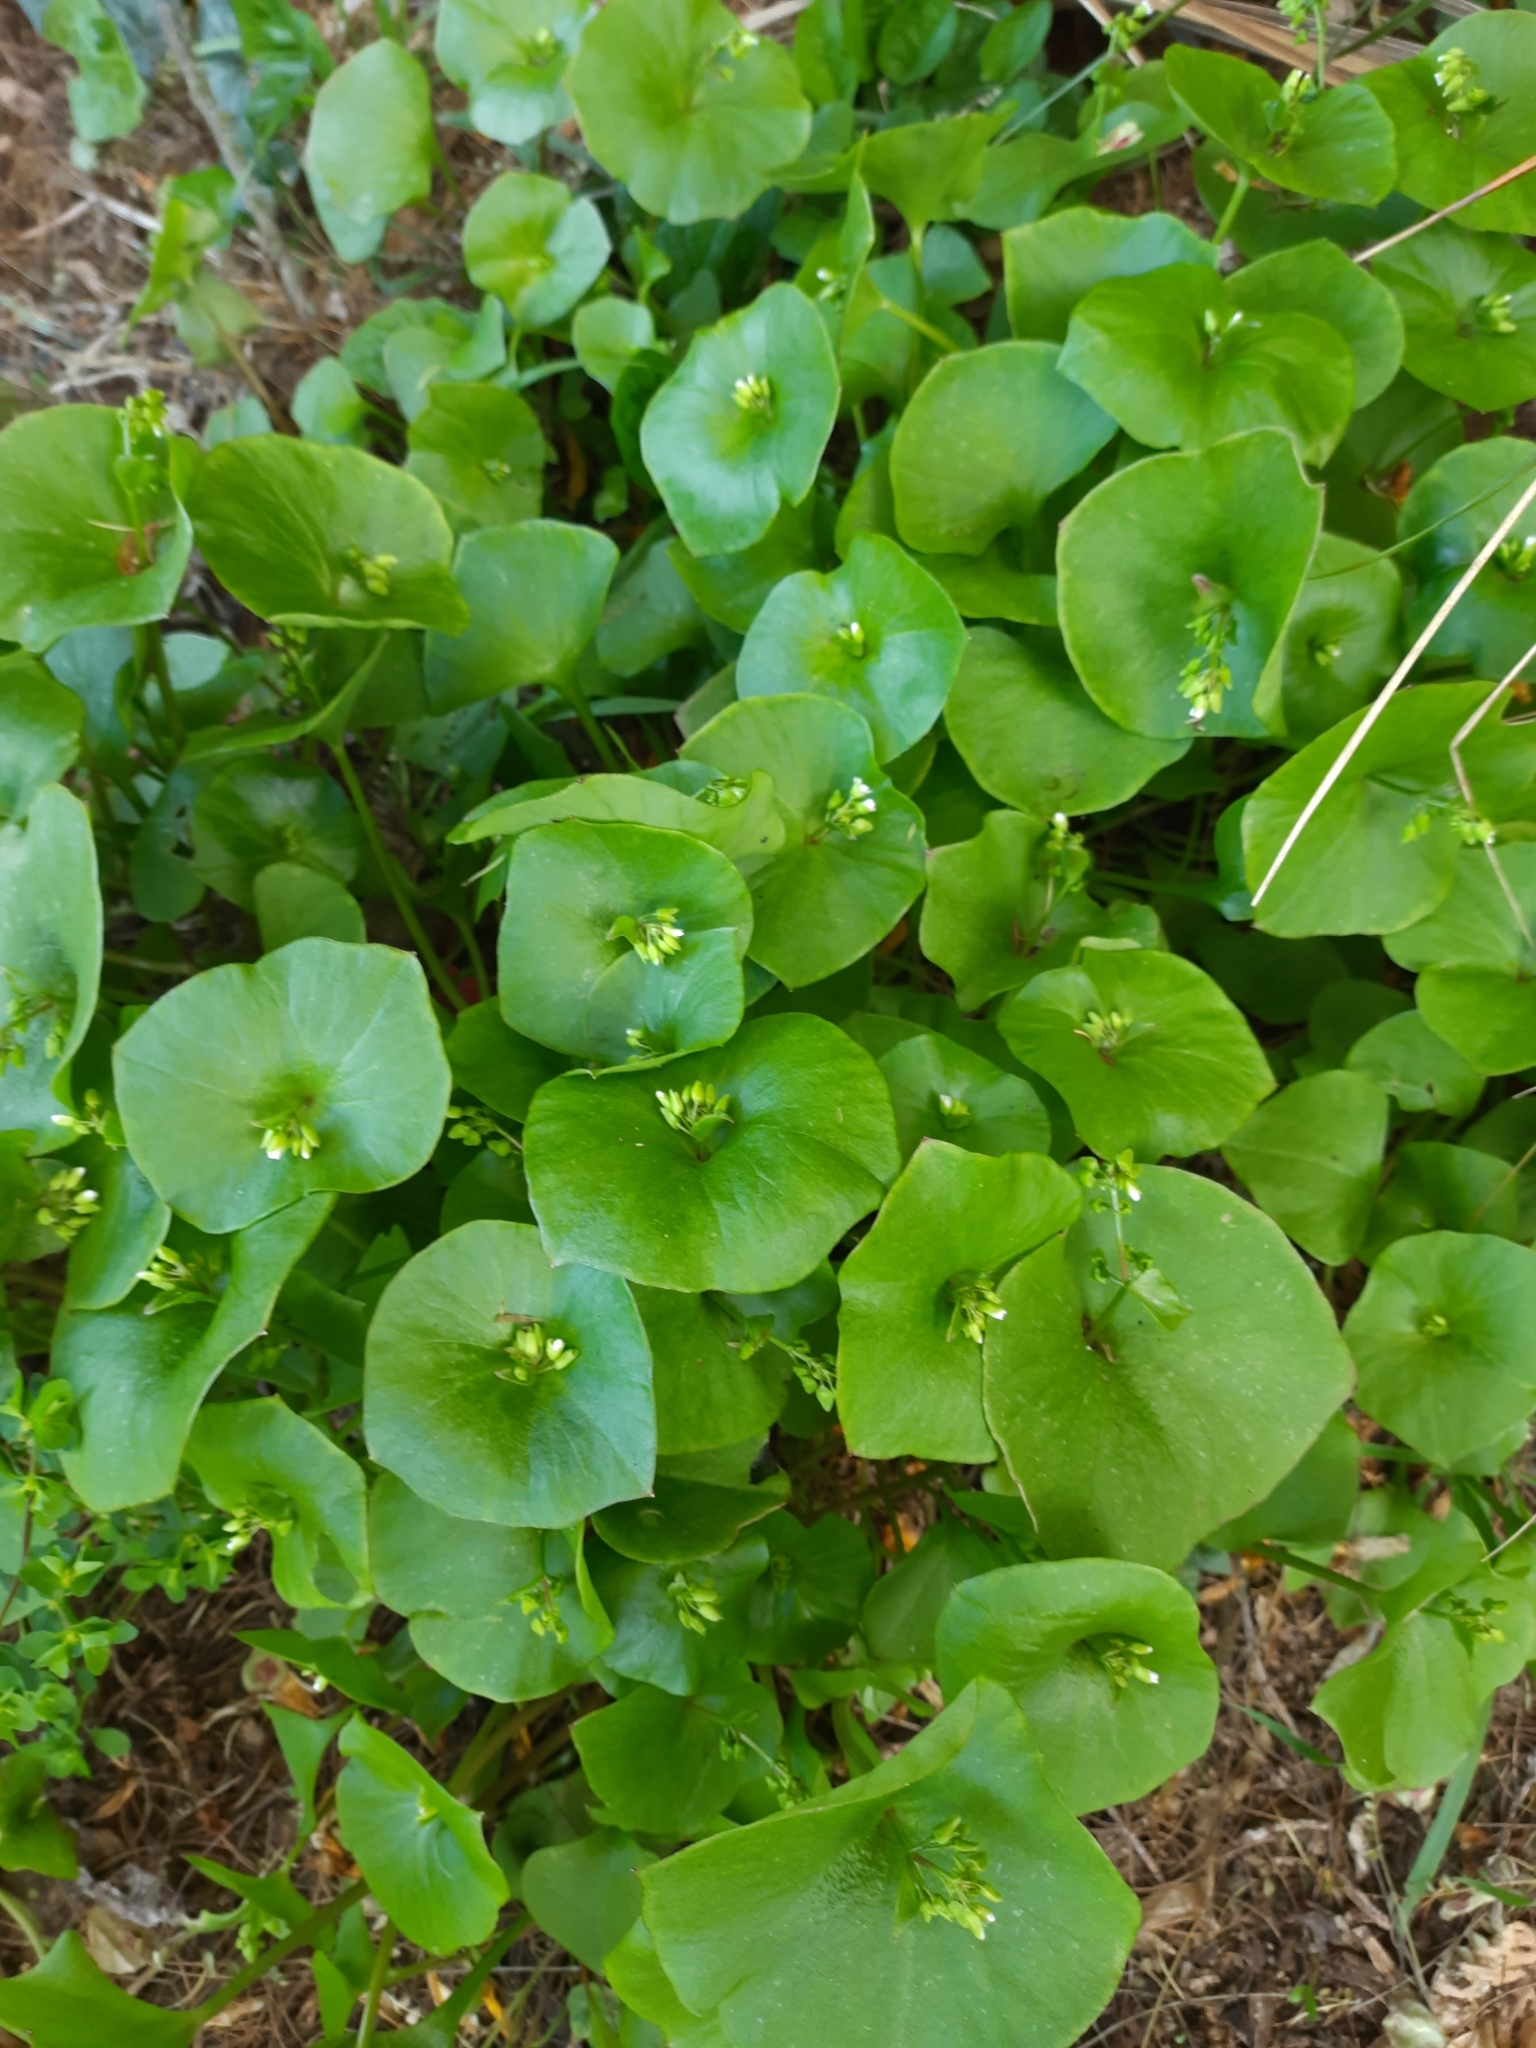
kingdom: Plantae
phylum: Tracheophyta
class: Magnoliopsida
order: Caryophyllales
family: Montiaceae
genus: Claytonia
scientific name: Claytonia perfoliata
